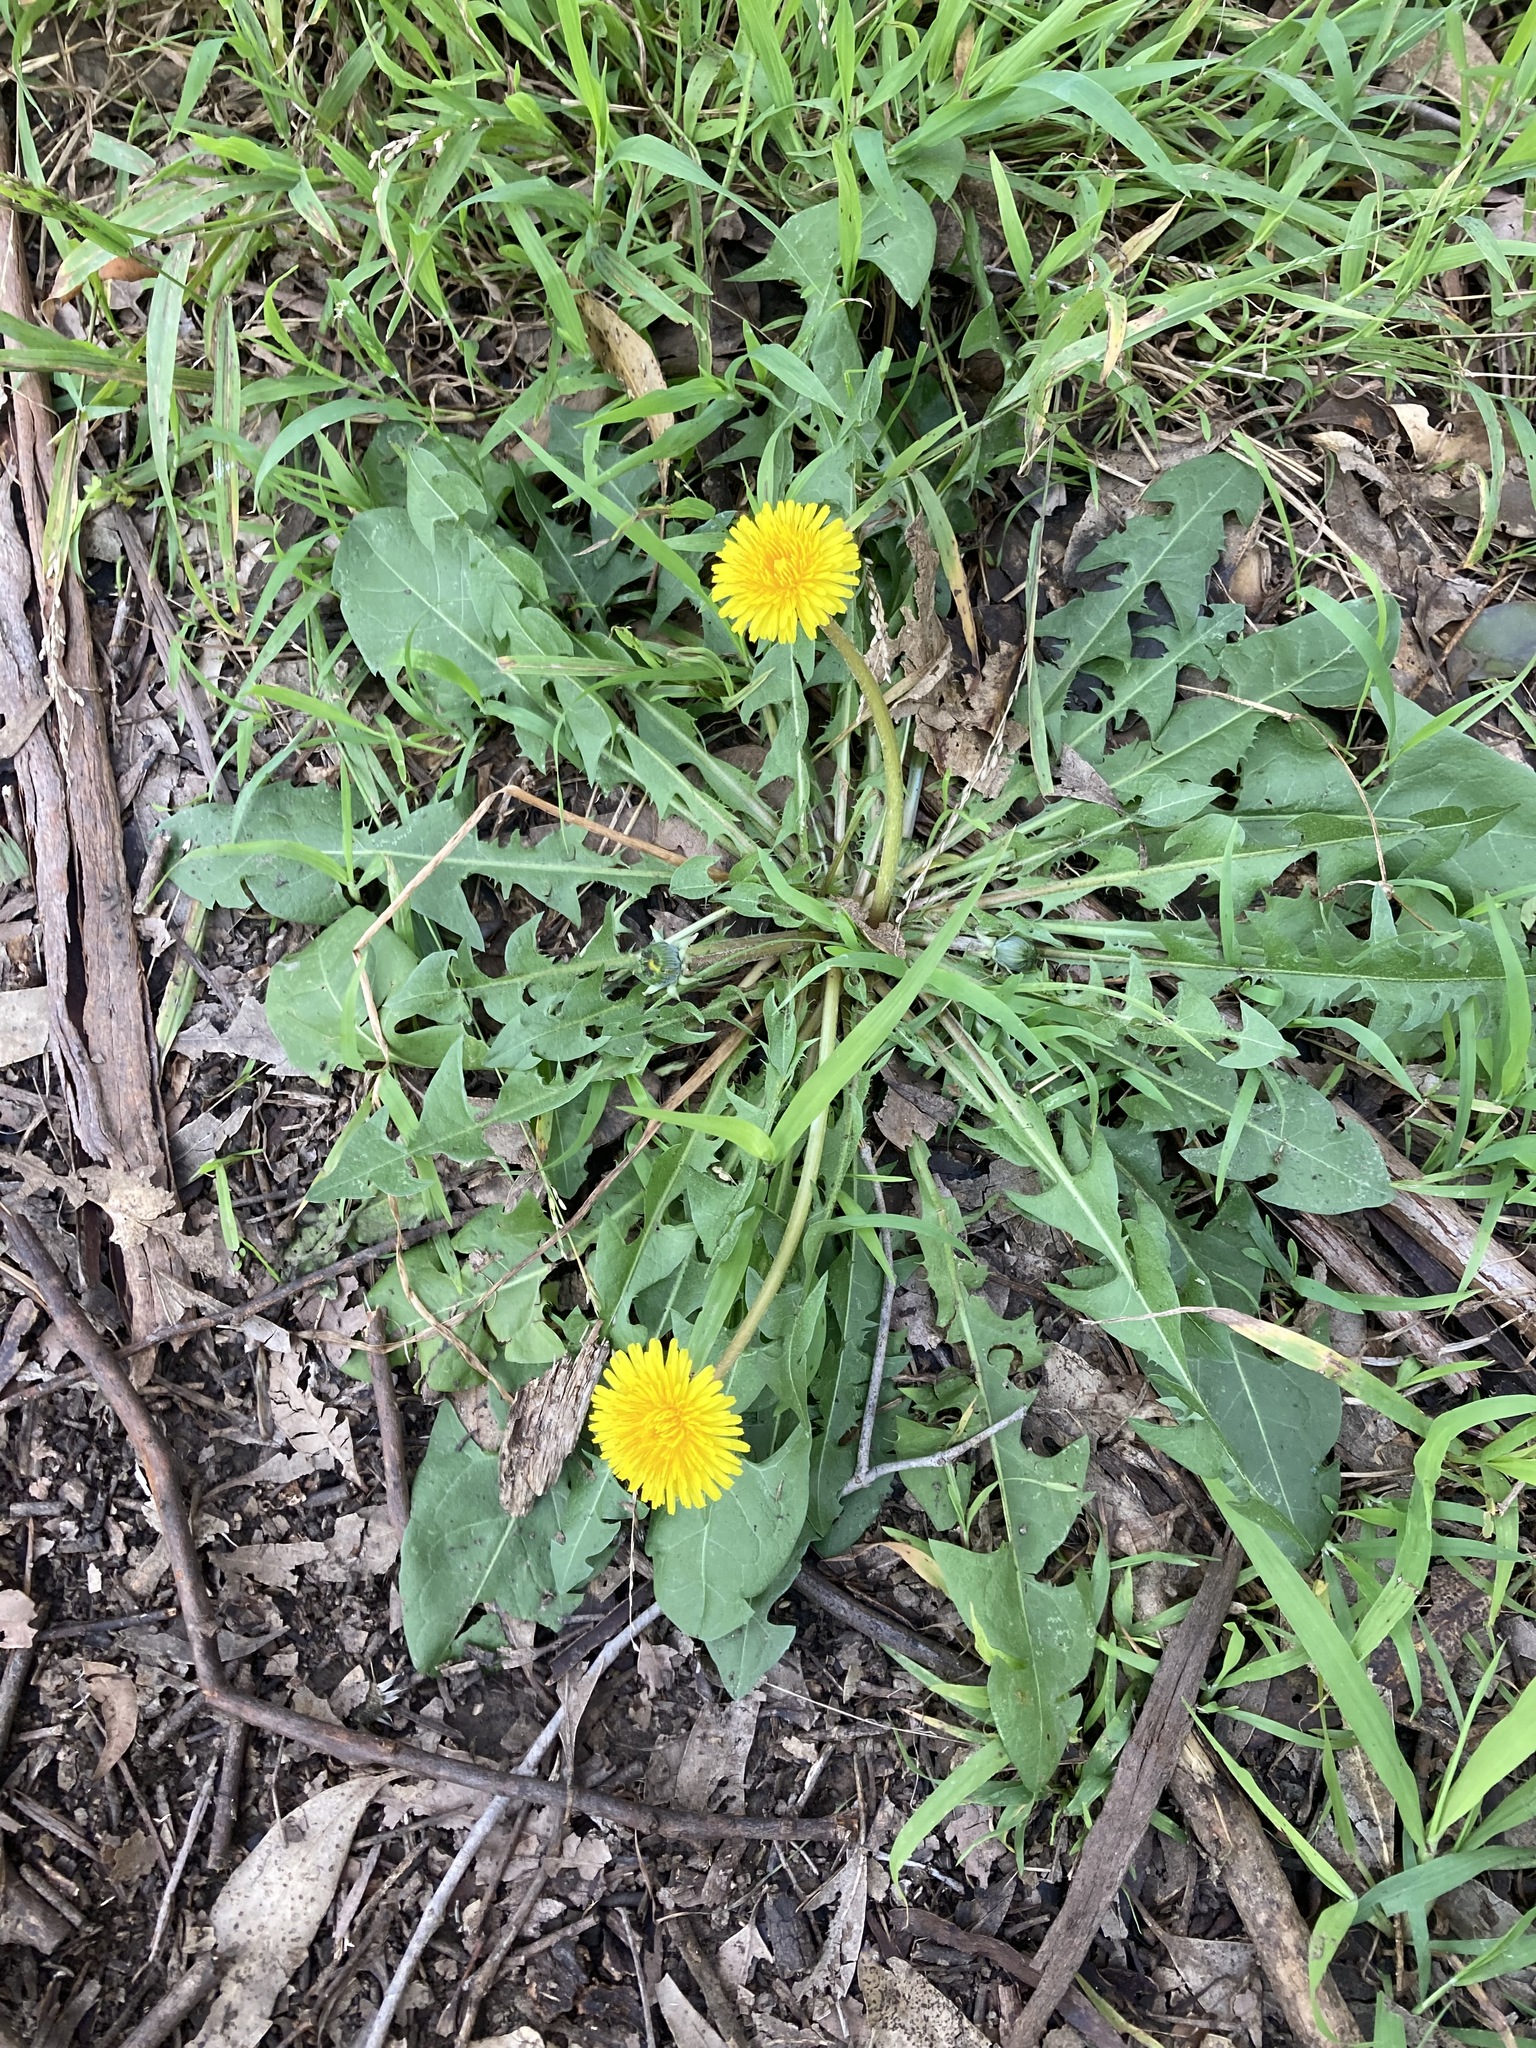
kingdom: Plantae
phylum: Tracheophyta
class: Magnoliopsida
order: Asterales
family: Asteraceae
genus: Taraxacum
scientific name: Taraxacum officinale
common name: Common dandelion
